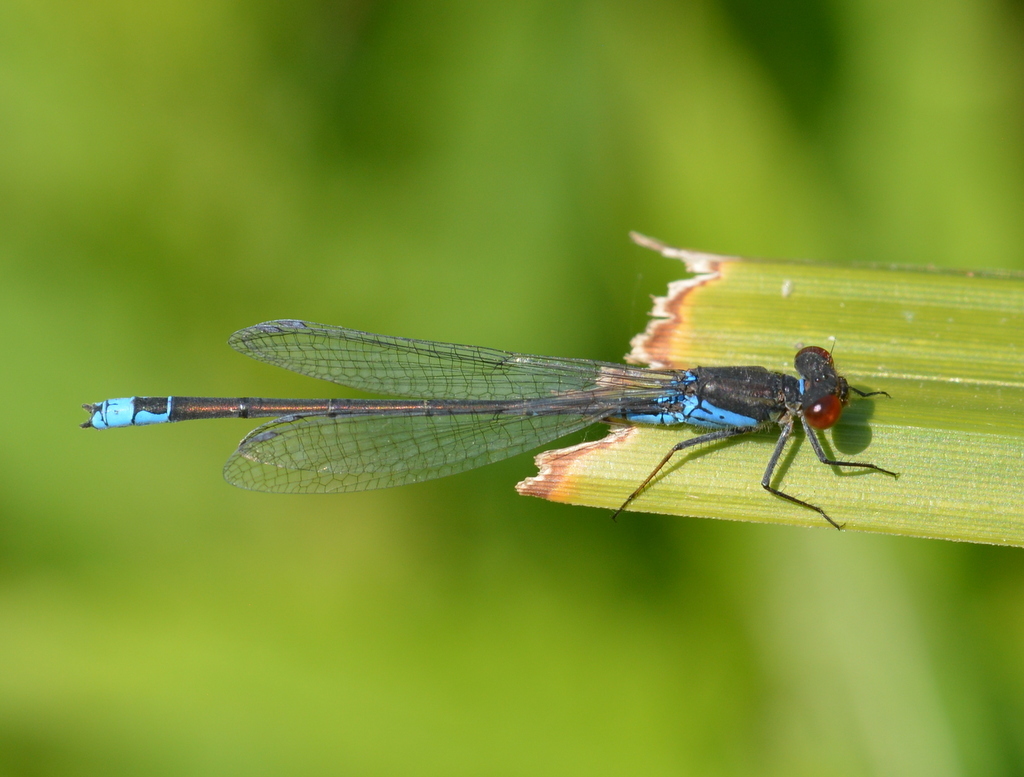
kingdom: Animalia
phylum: Arthropoda
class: Insecta
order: Odonata
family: Coenagrionidae
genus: Erythromma
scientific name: Erythromma viridulum
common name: Small red-eyed damselfly
